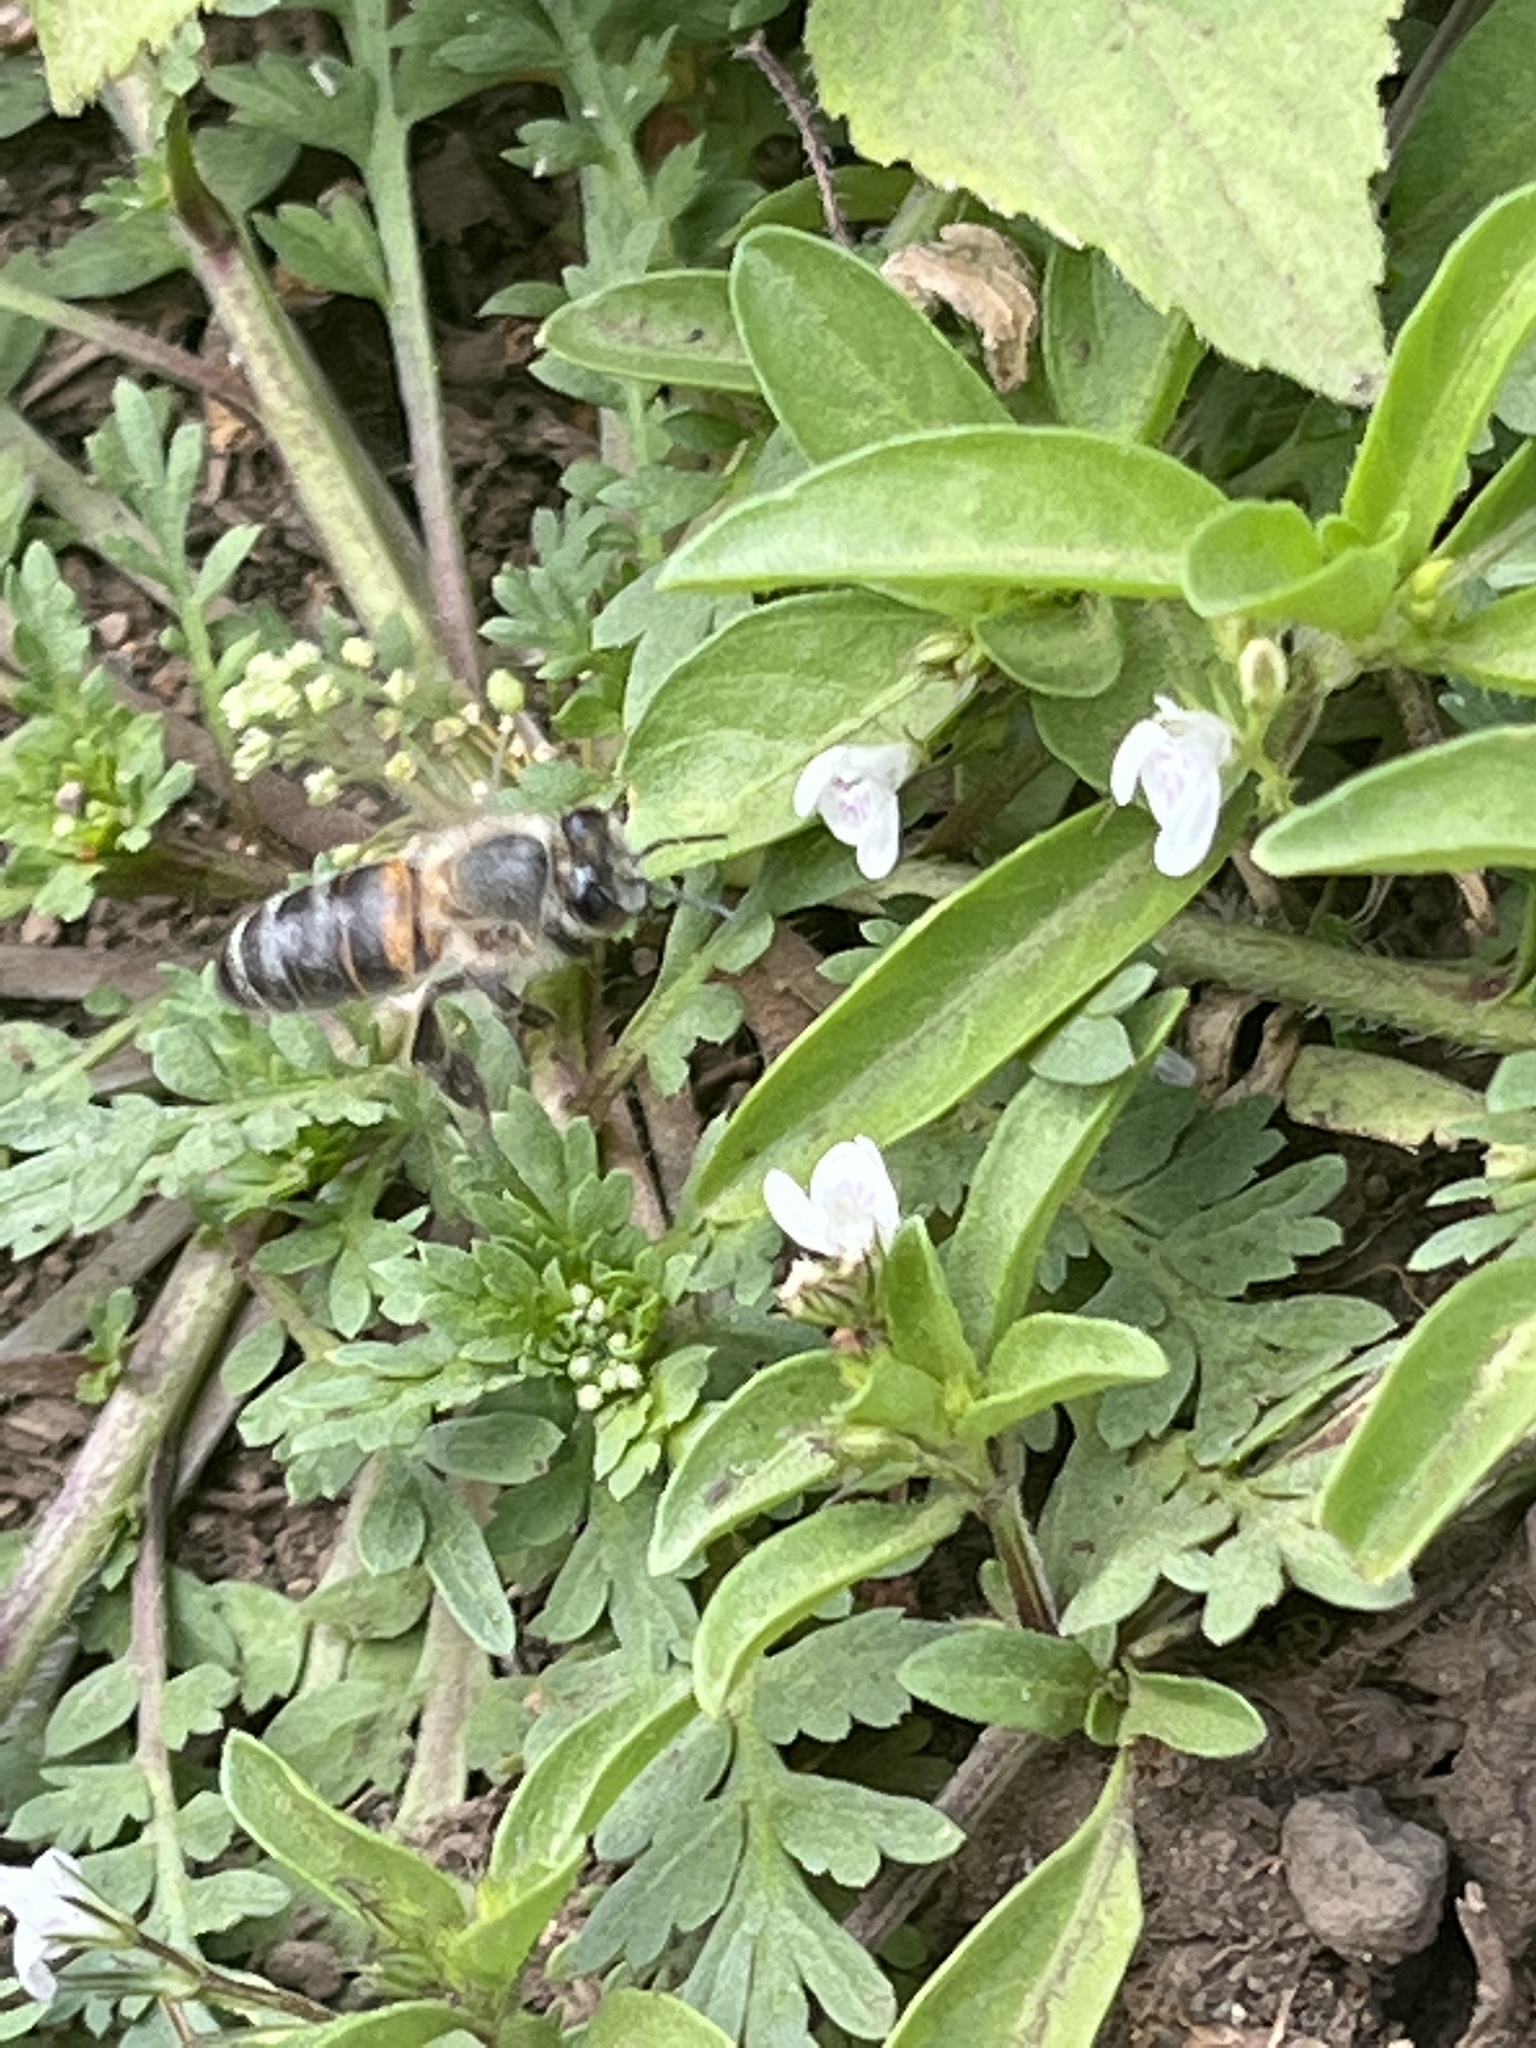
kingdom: Animalia
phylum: Arthropoda
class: Insecta
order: Hymenoptera
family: Apidae
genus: Apis
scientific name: Apis mellifera
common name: Honey bee
